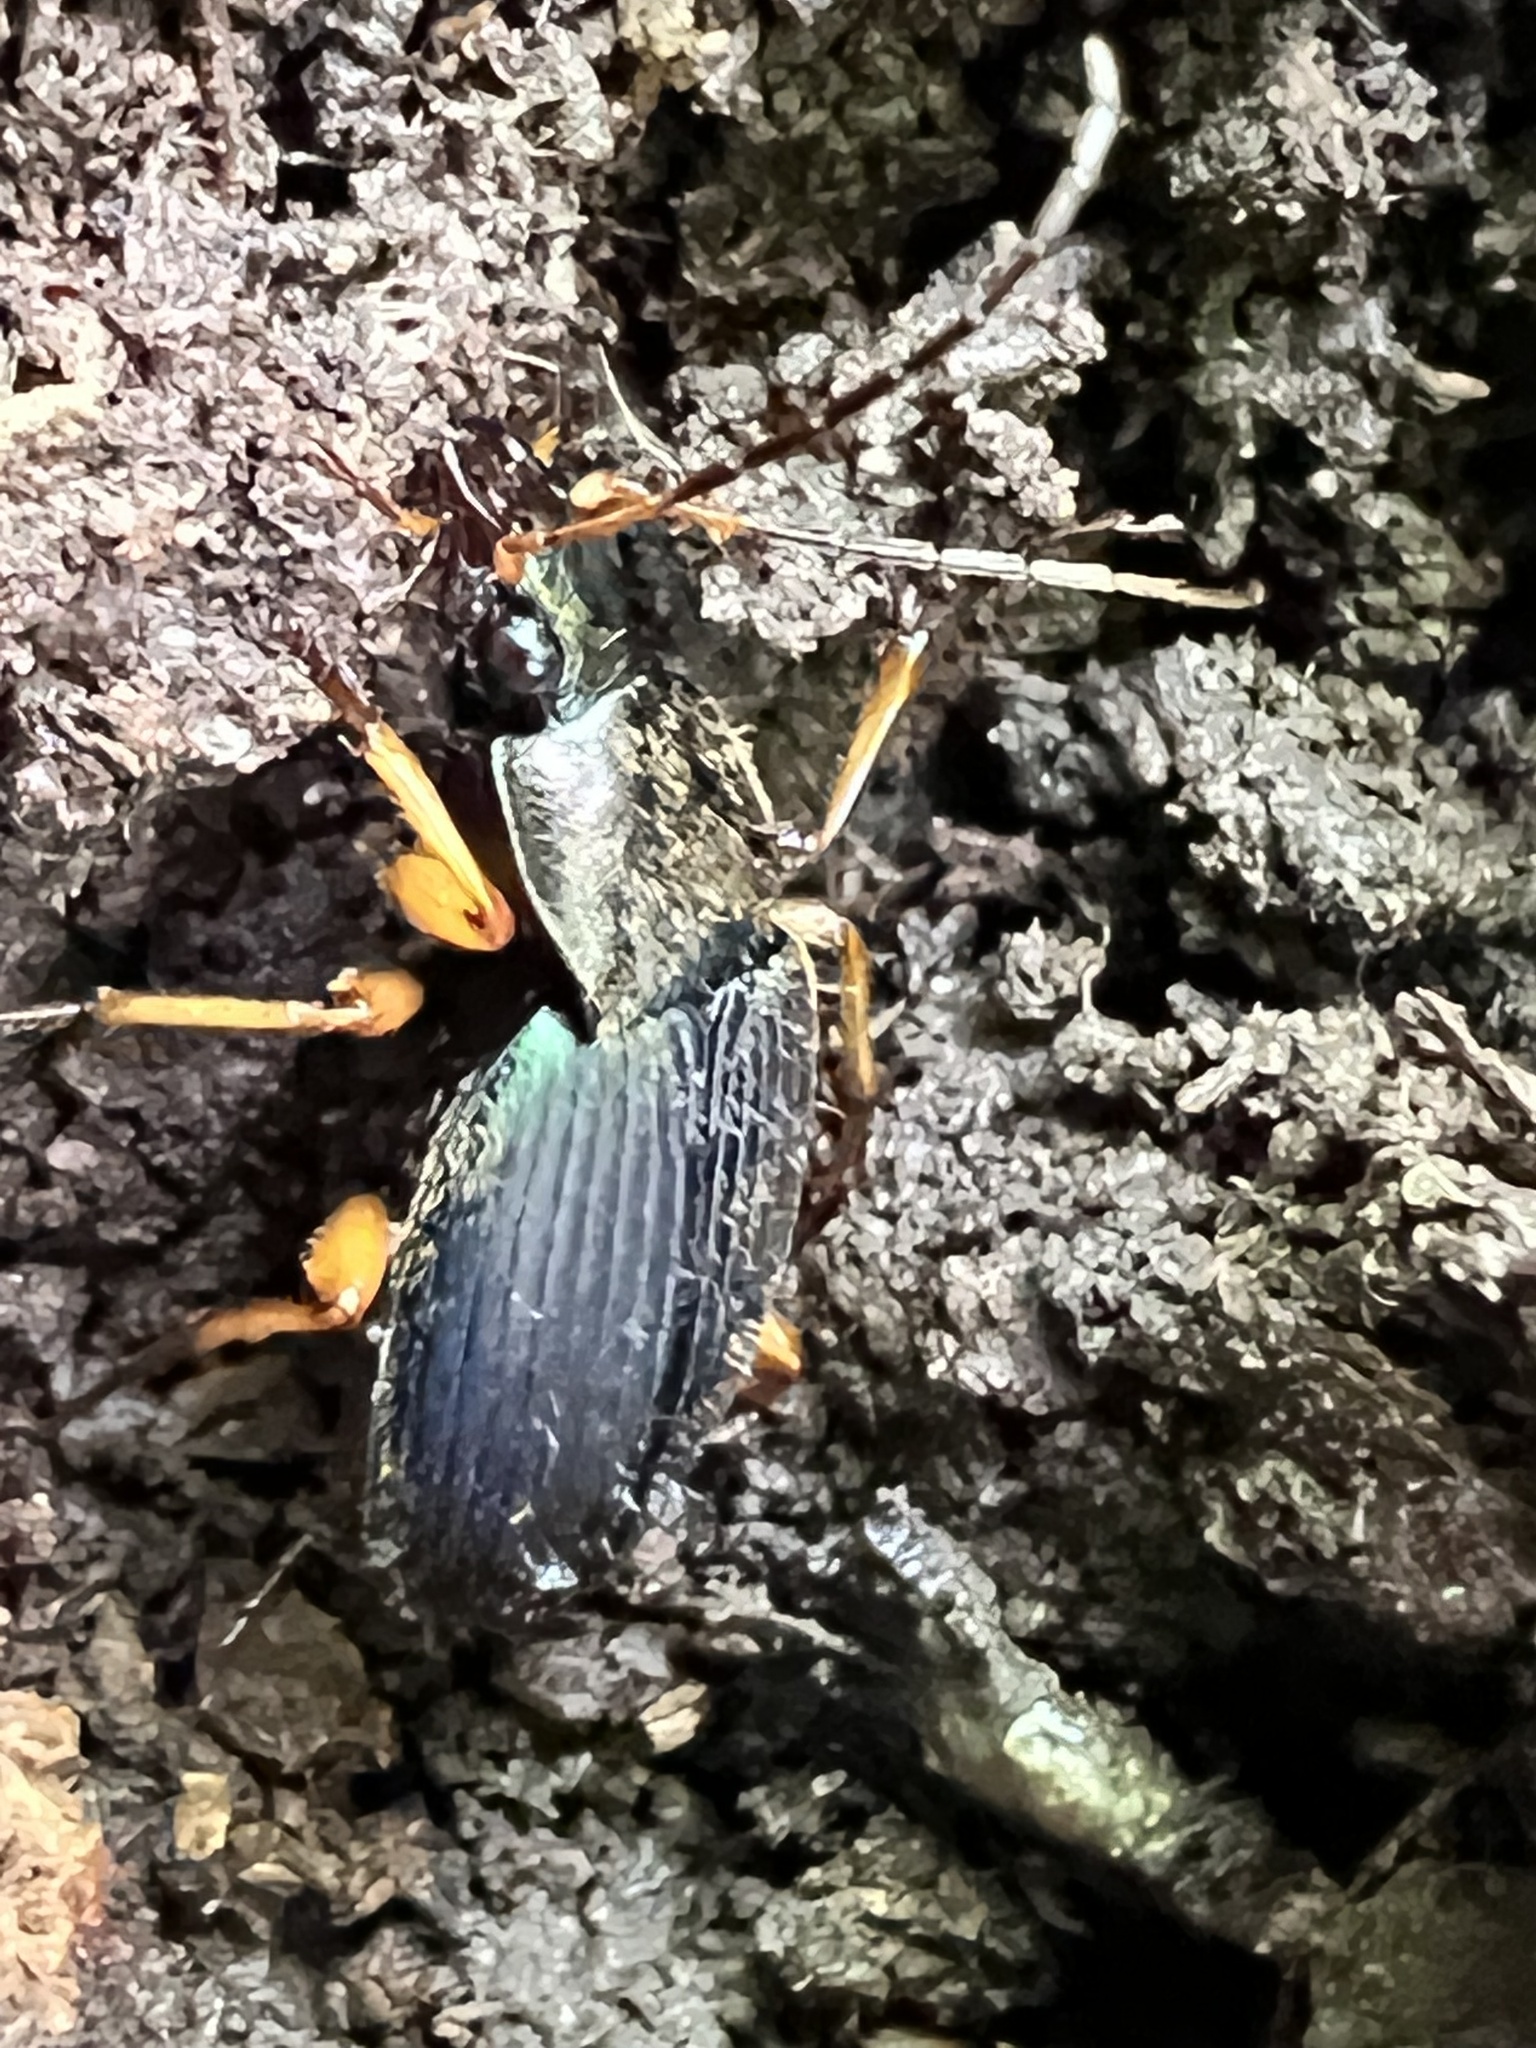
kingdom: Animalia
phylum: Arthropoda
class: Insecta
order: Coleoptera
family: Carabidae
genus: Chlaenius
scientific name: Chlaenius aestivus
